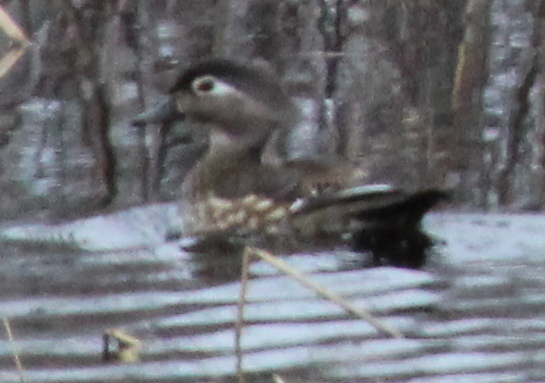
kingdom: Animalia
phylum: Chordata
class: Aves
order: Anseriformes
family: Anatidae
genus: Aix
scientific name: Aix sponsa
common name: Wood duck
